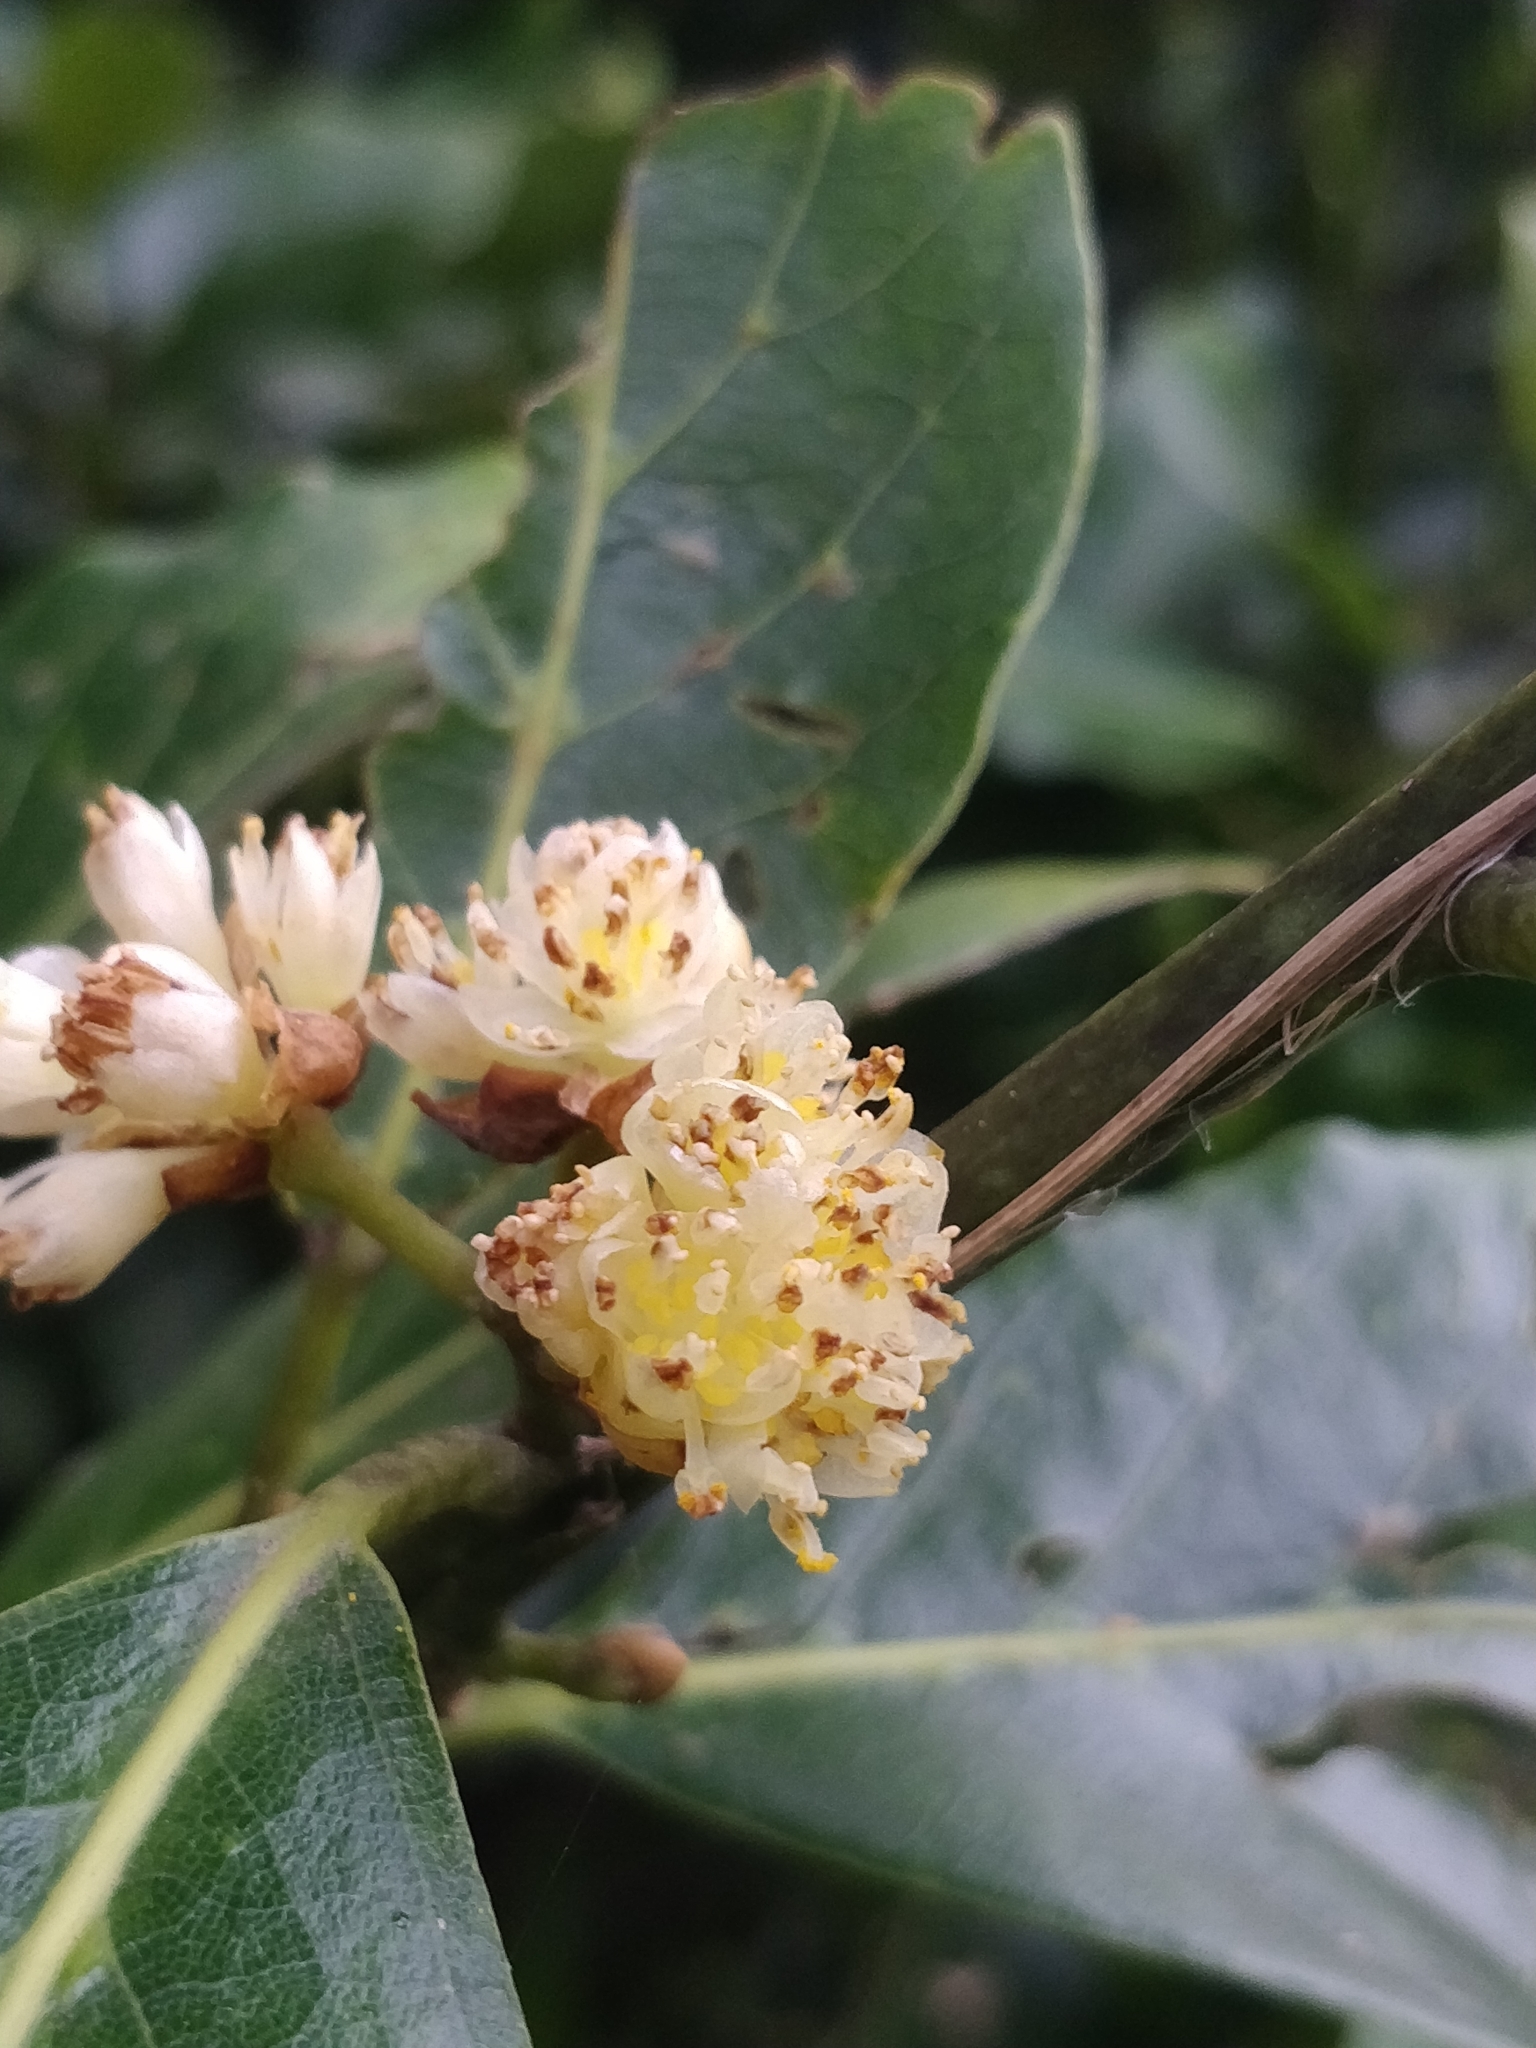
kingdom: Plantae
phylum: Tracheophyta
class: Magnoliopsida
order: Laurales
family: Lauraceae
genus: Laurus
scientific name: Laurus novocanariensis
